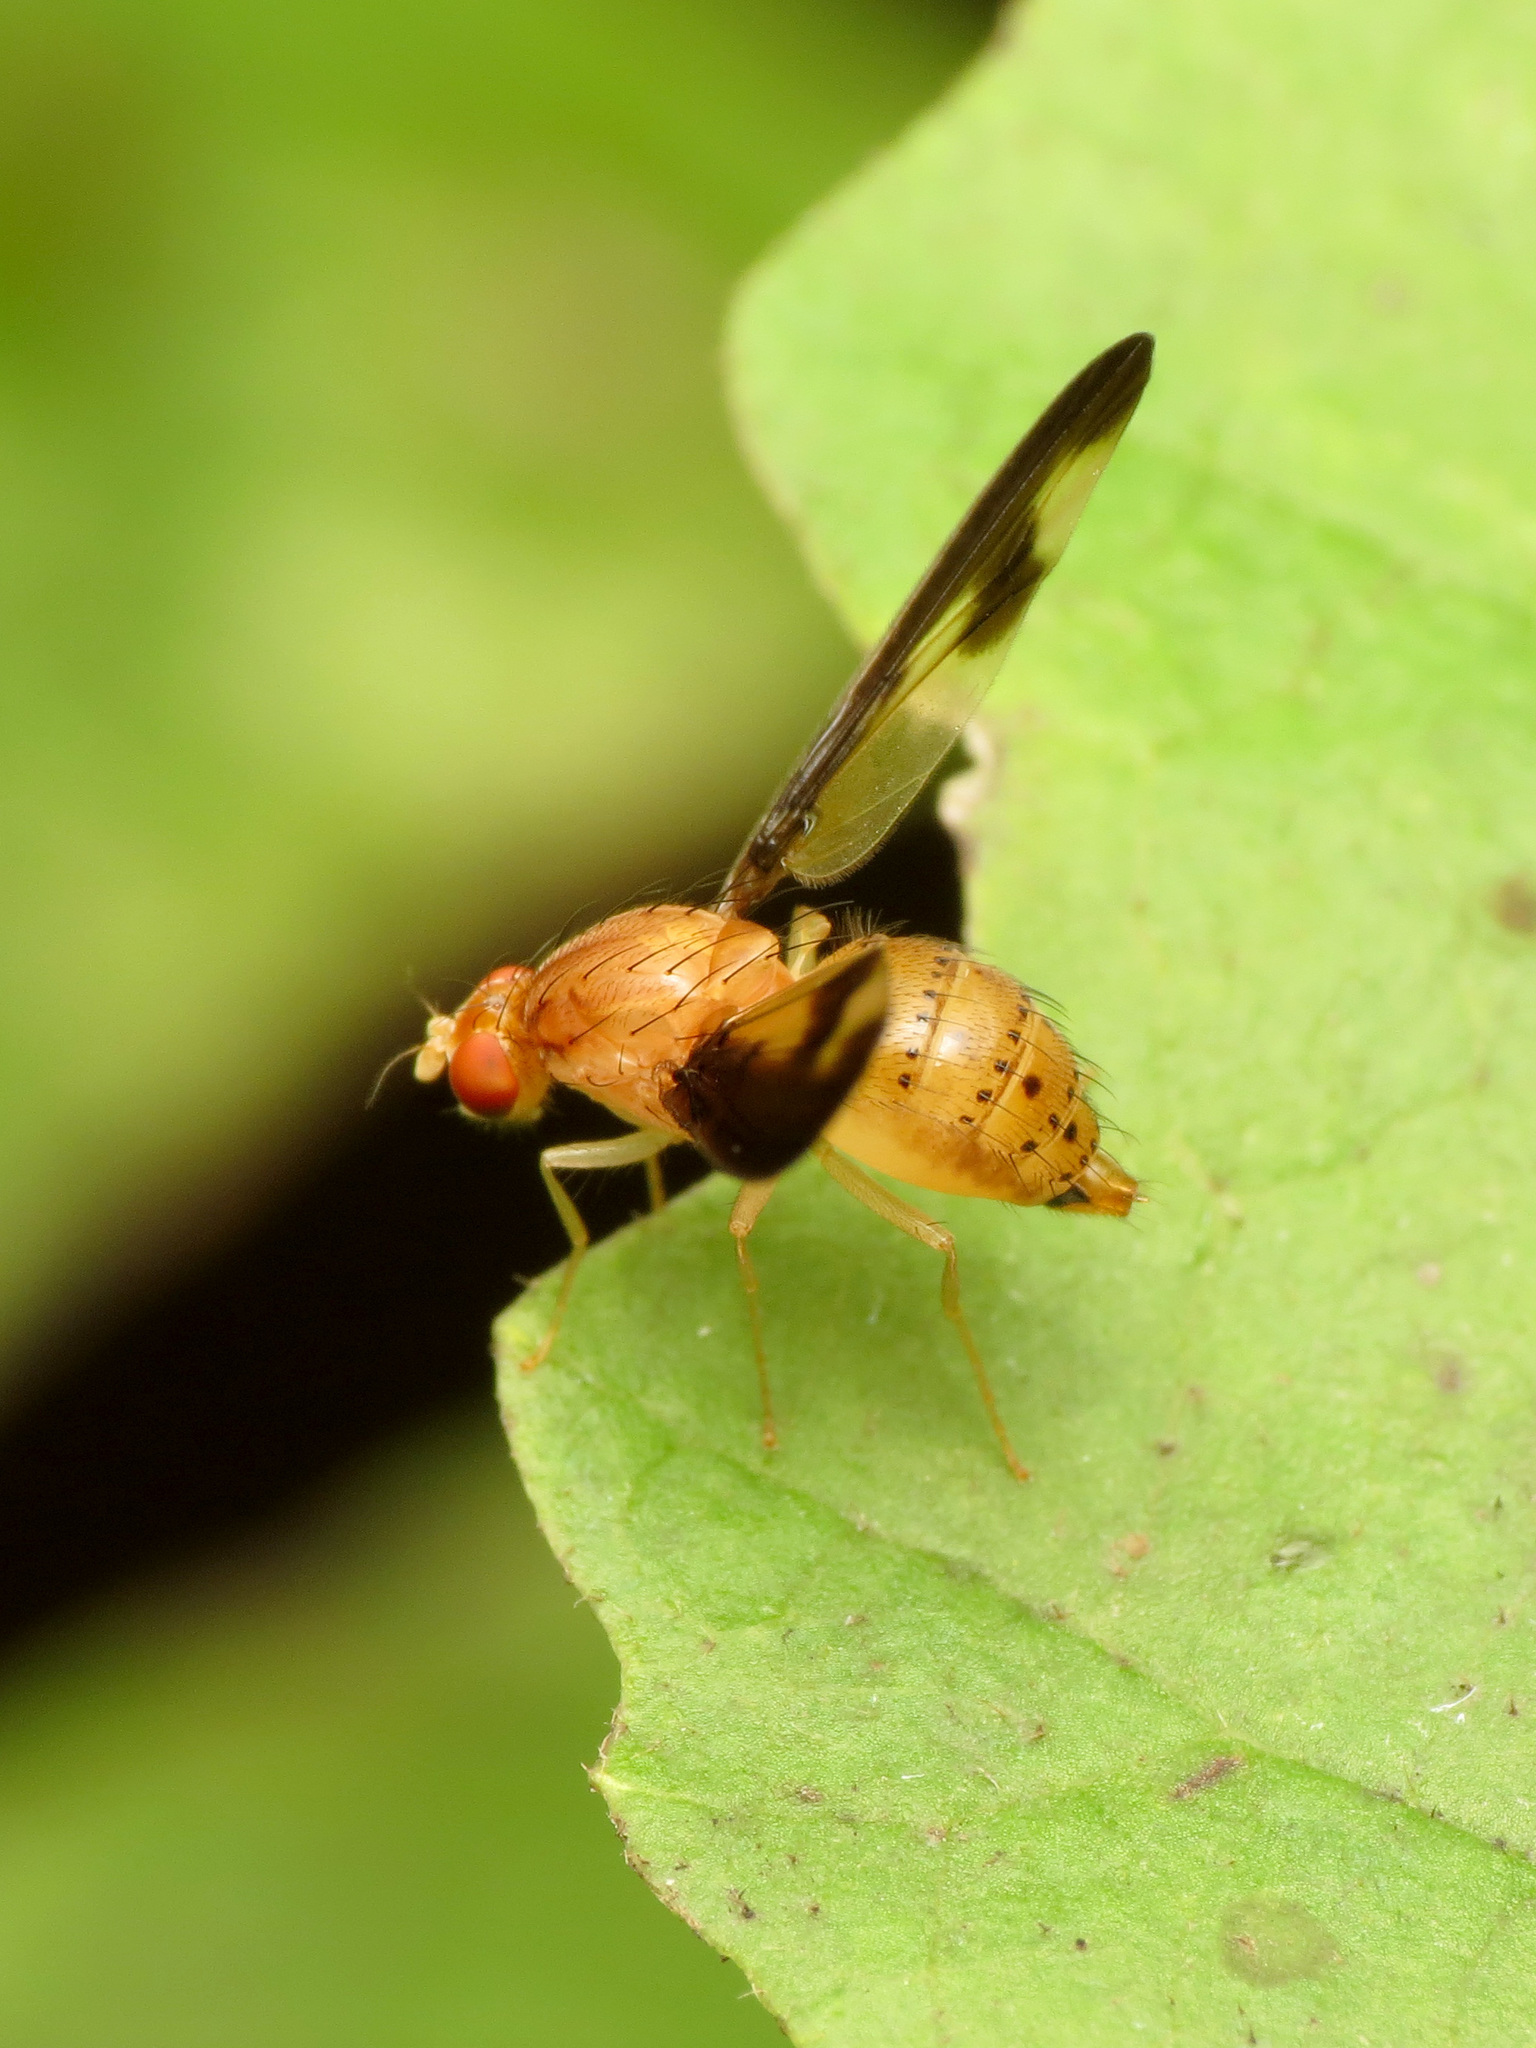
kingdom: Animalia
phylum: Arthropoda
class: Insecta
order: Diptera
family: Pallopteridae
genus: Toxonevra
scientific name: Toxonevra superba
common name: Antlered flutter fly
